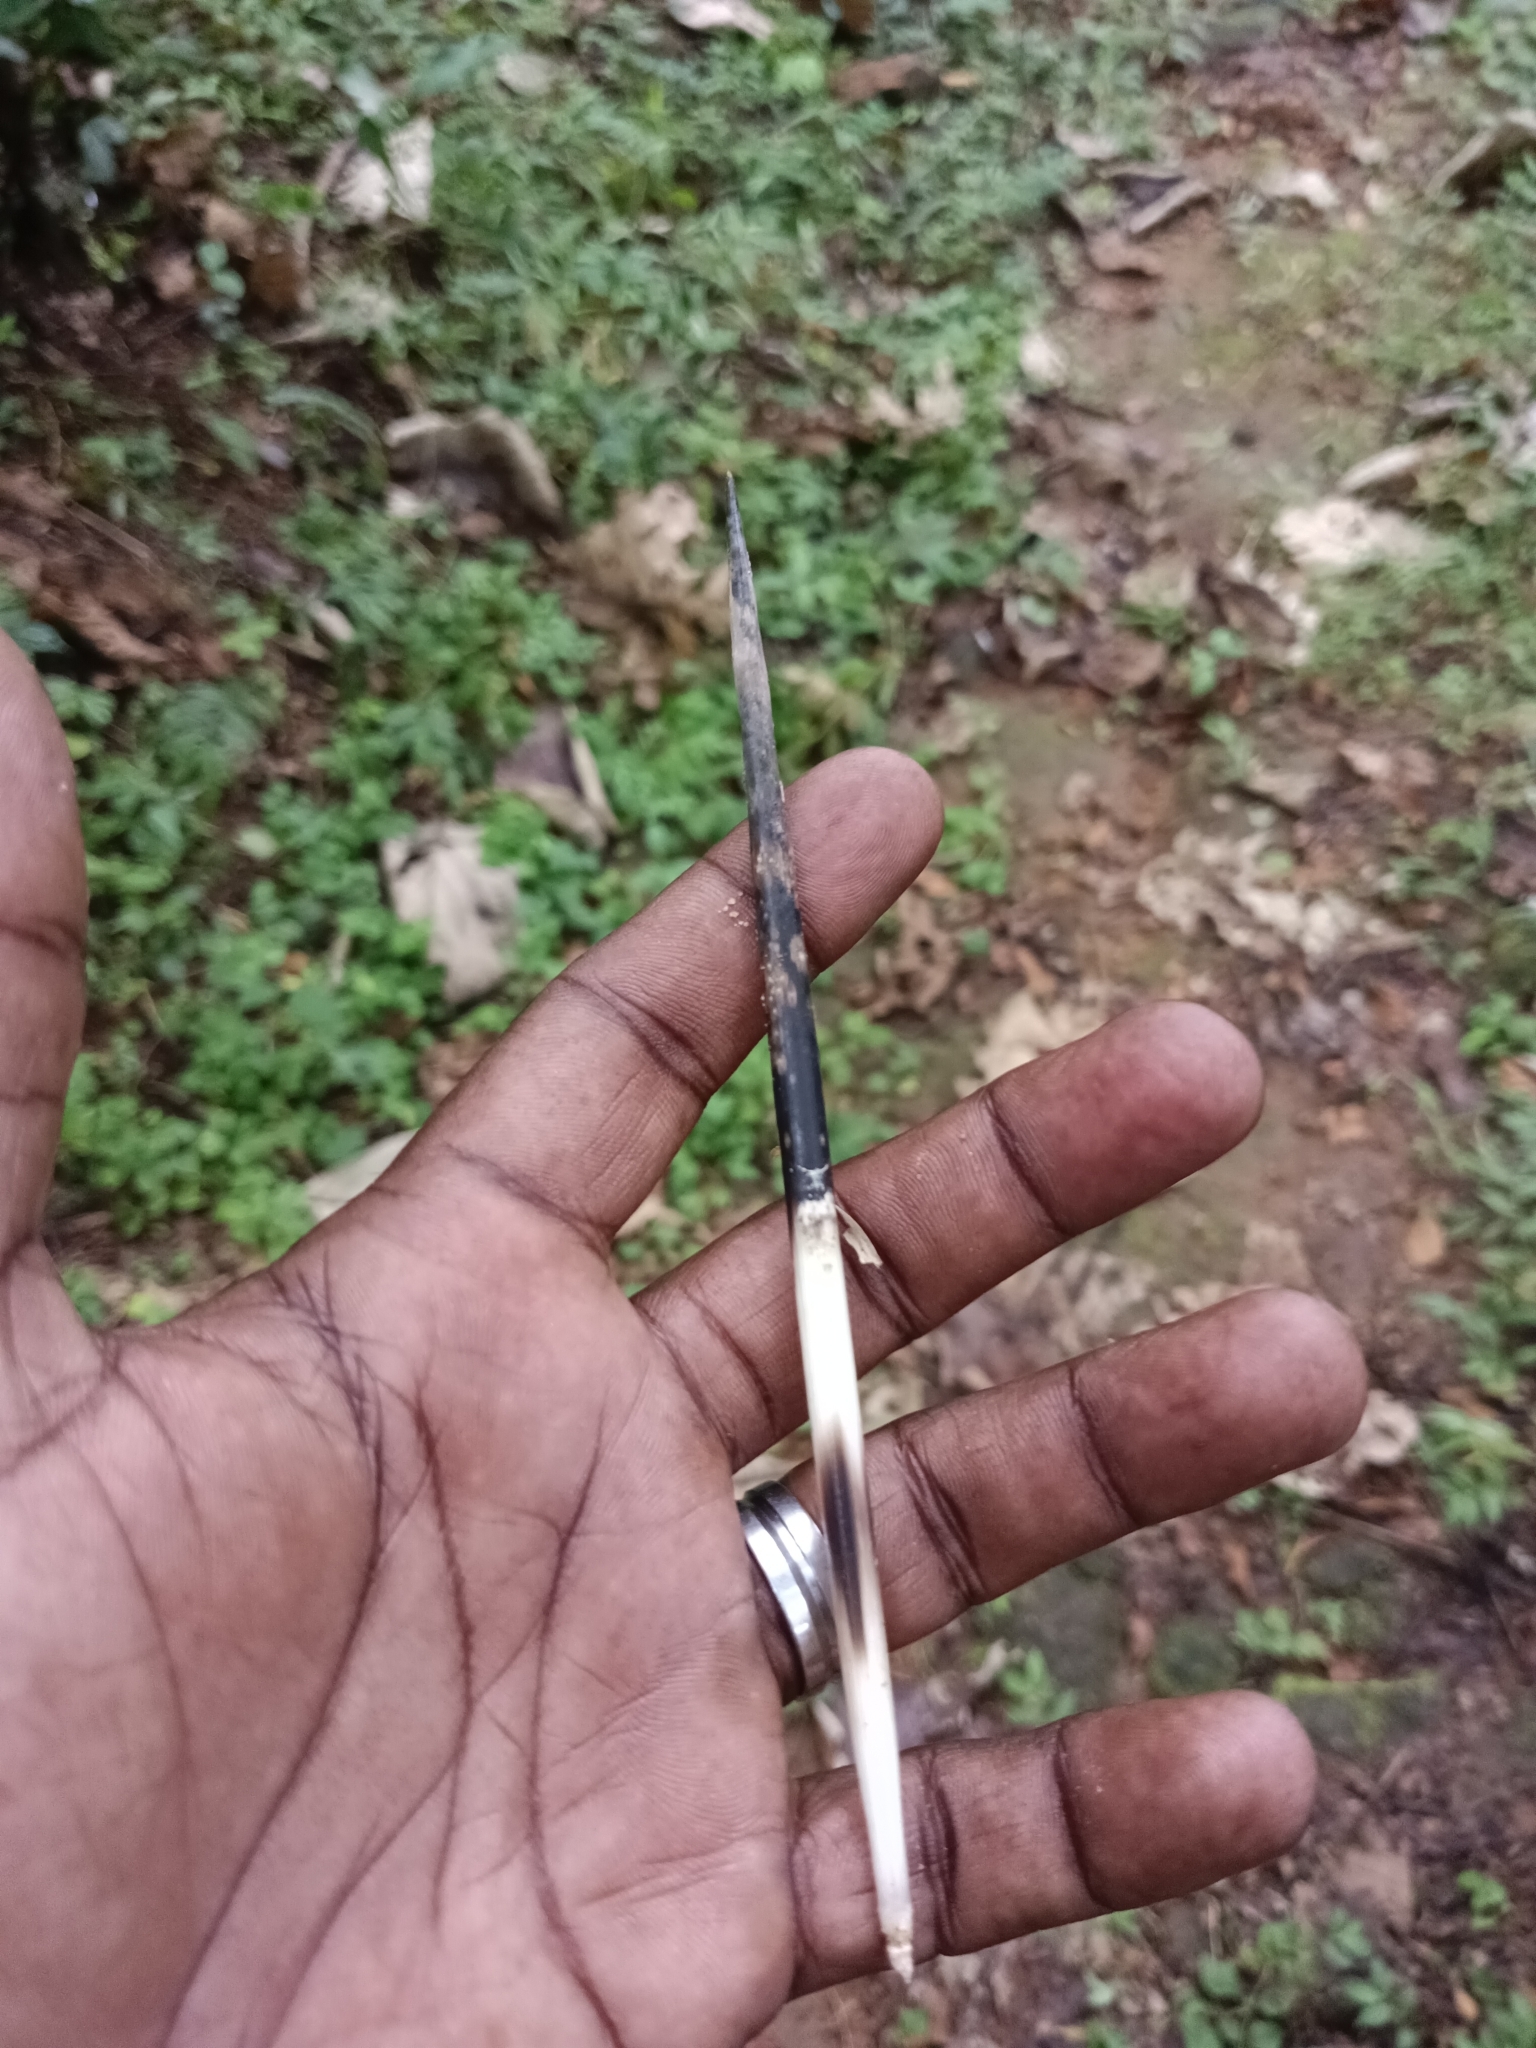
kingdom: Animalia
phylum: Chordata
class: Mammalia
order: Rodentia
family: Hystricidae
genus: Hystrix
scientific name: Hystrix indica
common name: Indian crested porcupine
